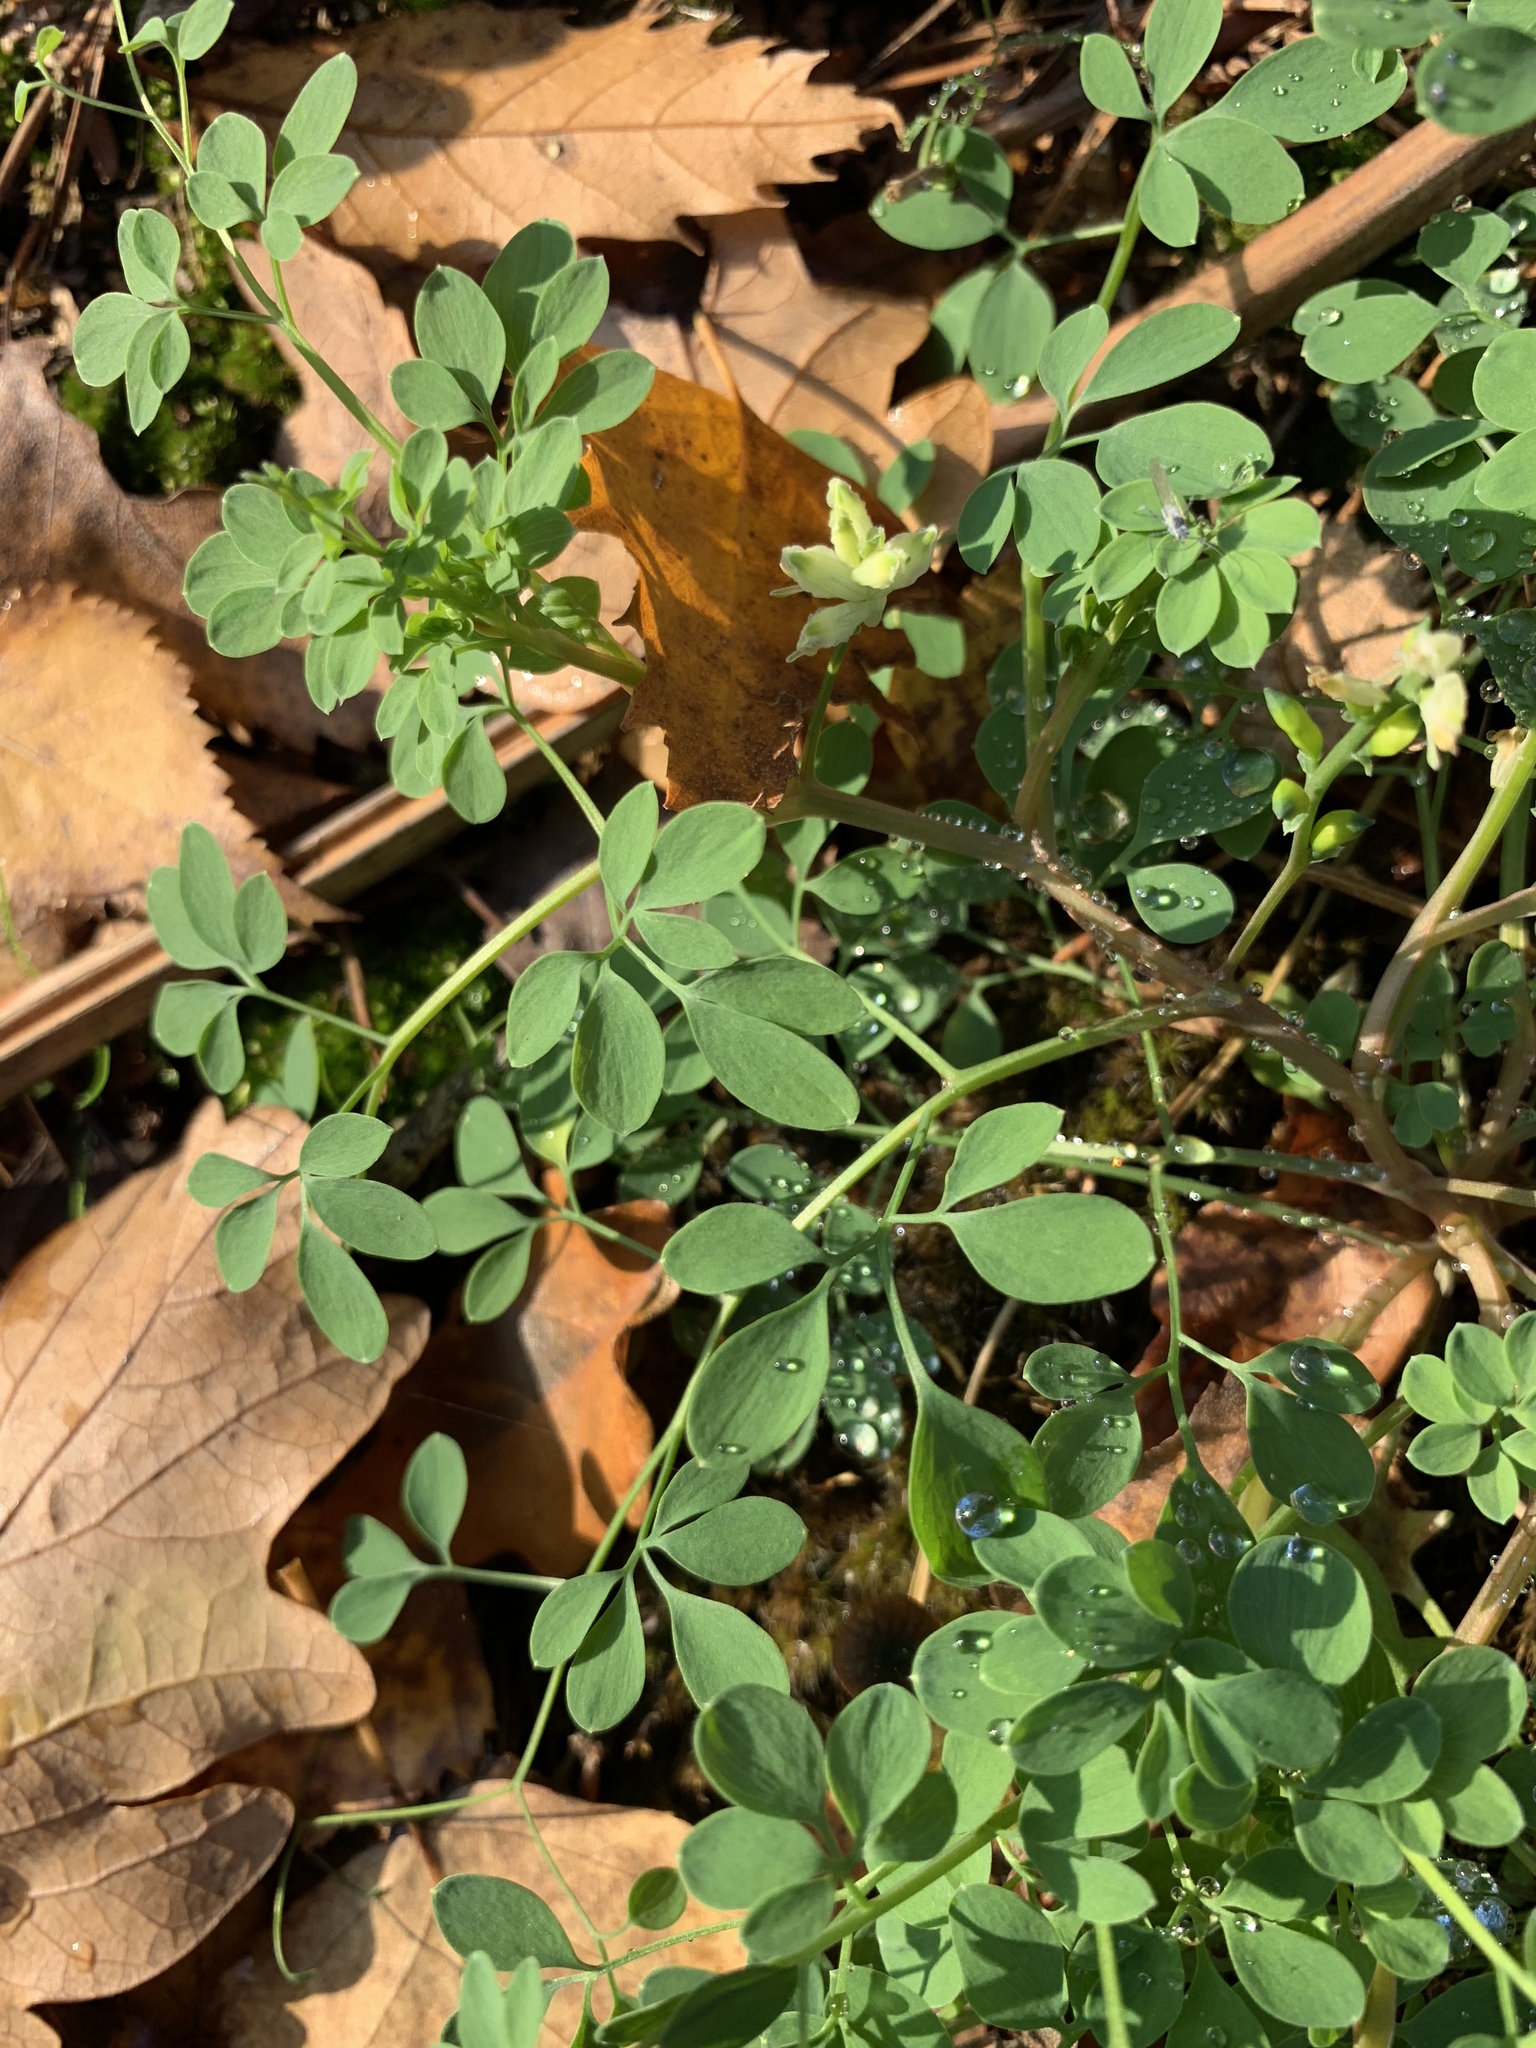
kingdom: Plantae
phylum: Tracheophyta
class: Magnoliopsida
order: Ranunculales
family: Papaveraceae
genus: Ceratocapnos
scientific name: Ceratocapnos claviculata
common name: Climbing corydalis
